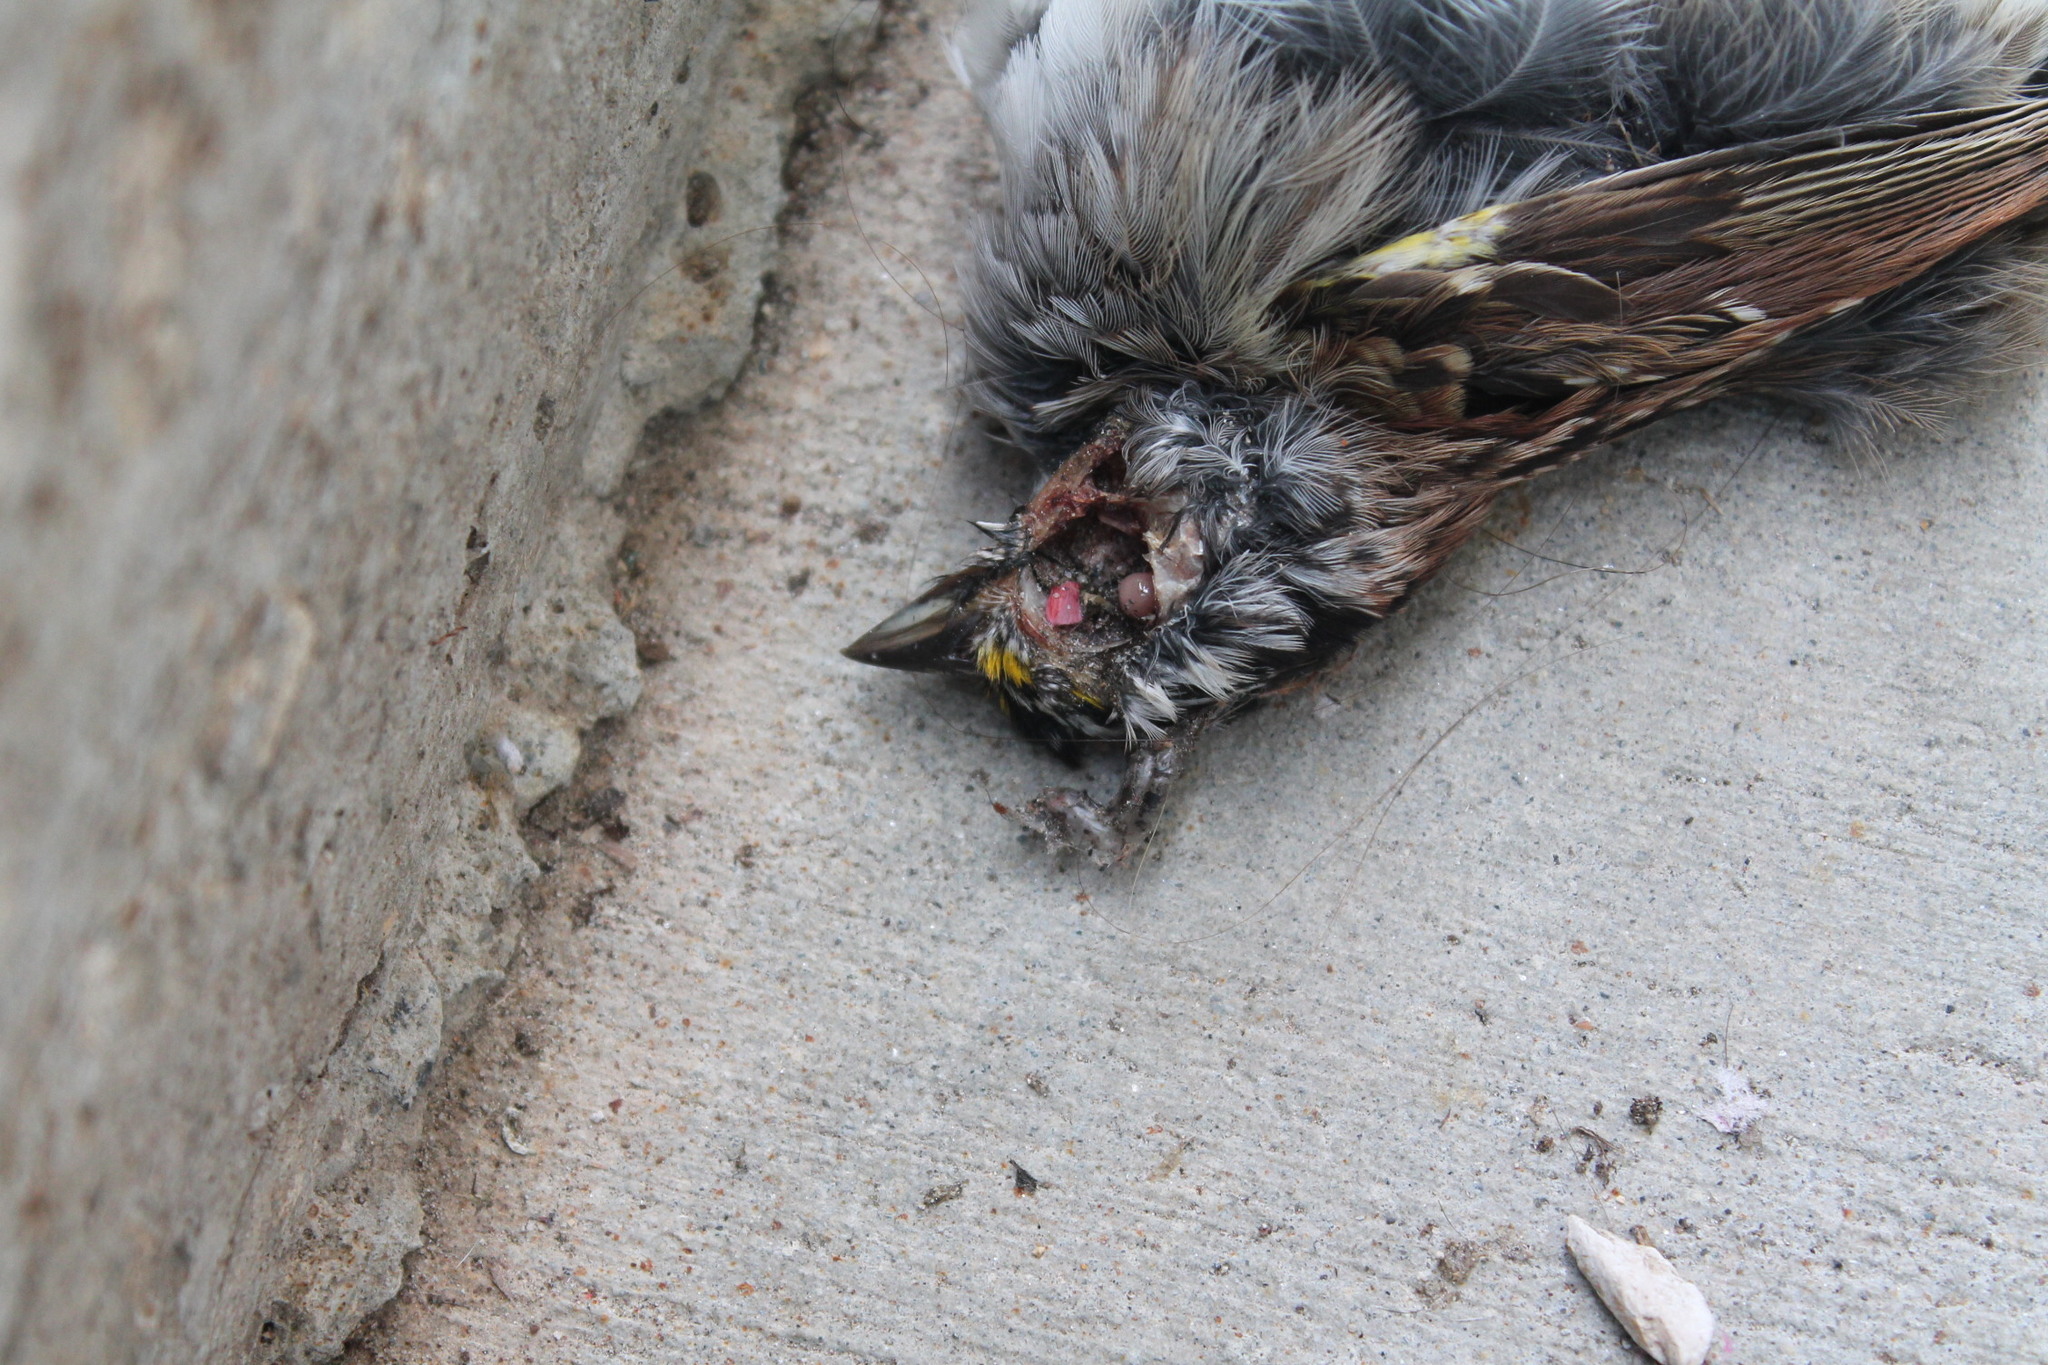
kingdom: Animalia
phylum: Chordata
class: Aves
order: Passeriformes
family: Passerellidae
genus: Zonotrichia
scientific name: Zonotrichia albicollis
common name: White-throated sparrow
